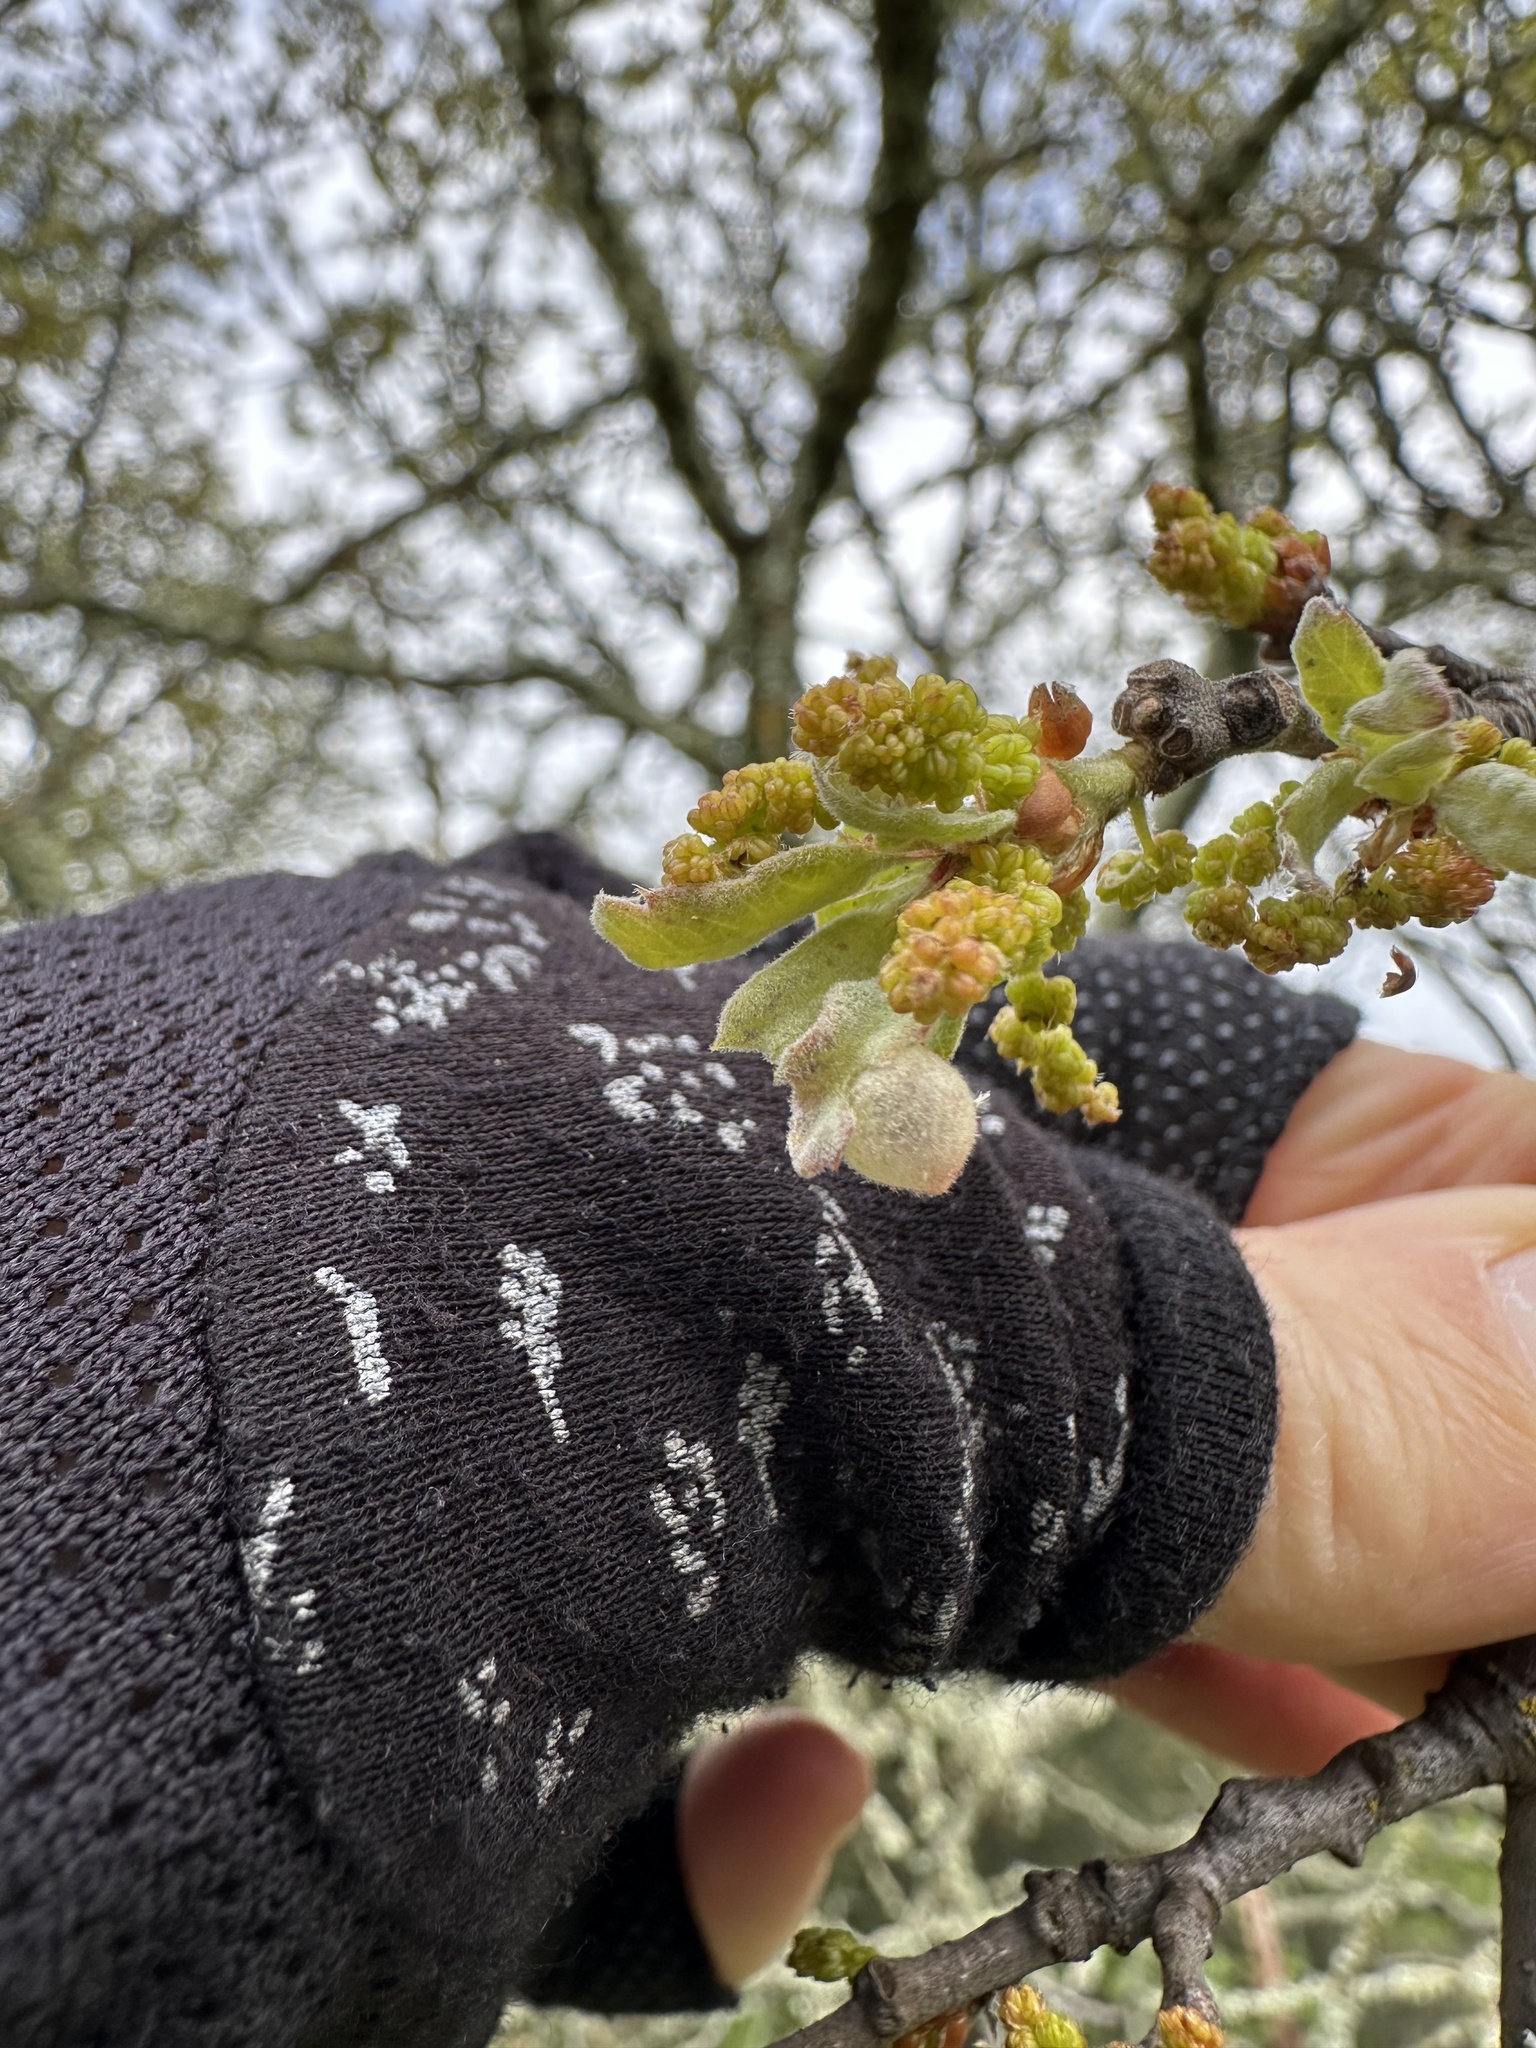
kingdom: Animalia
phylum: Arthropoda
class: Insecta
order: Hymenoptera
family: Cynipidae
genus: Andricus
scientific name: Andricus
